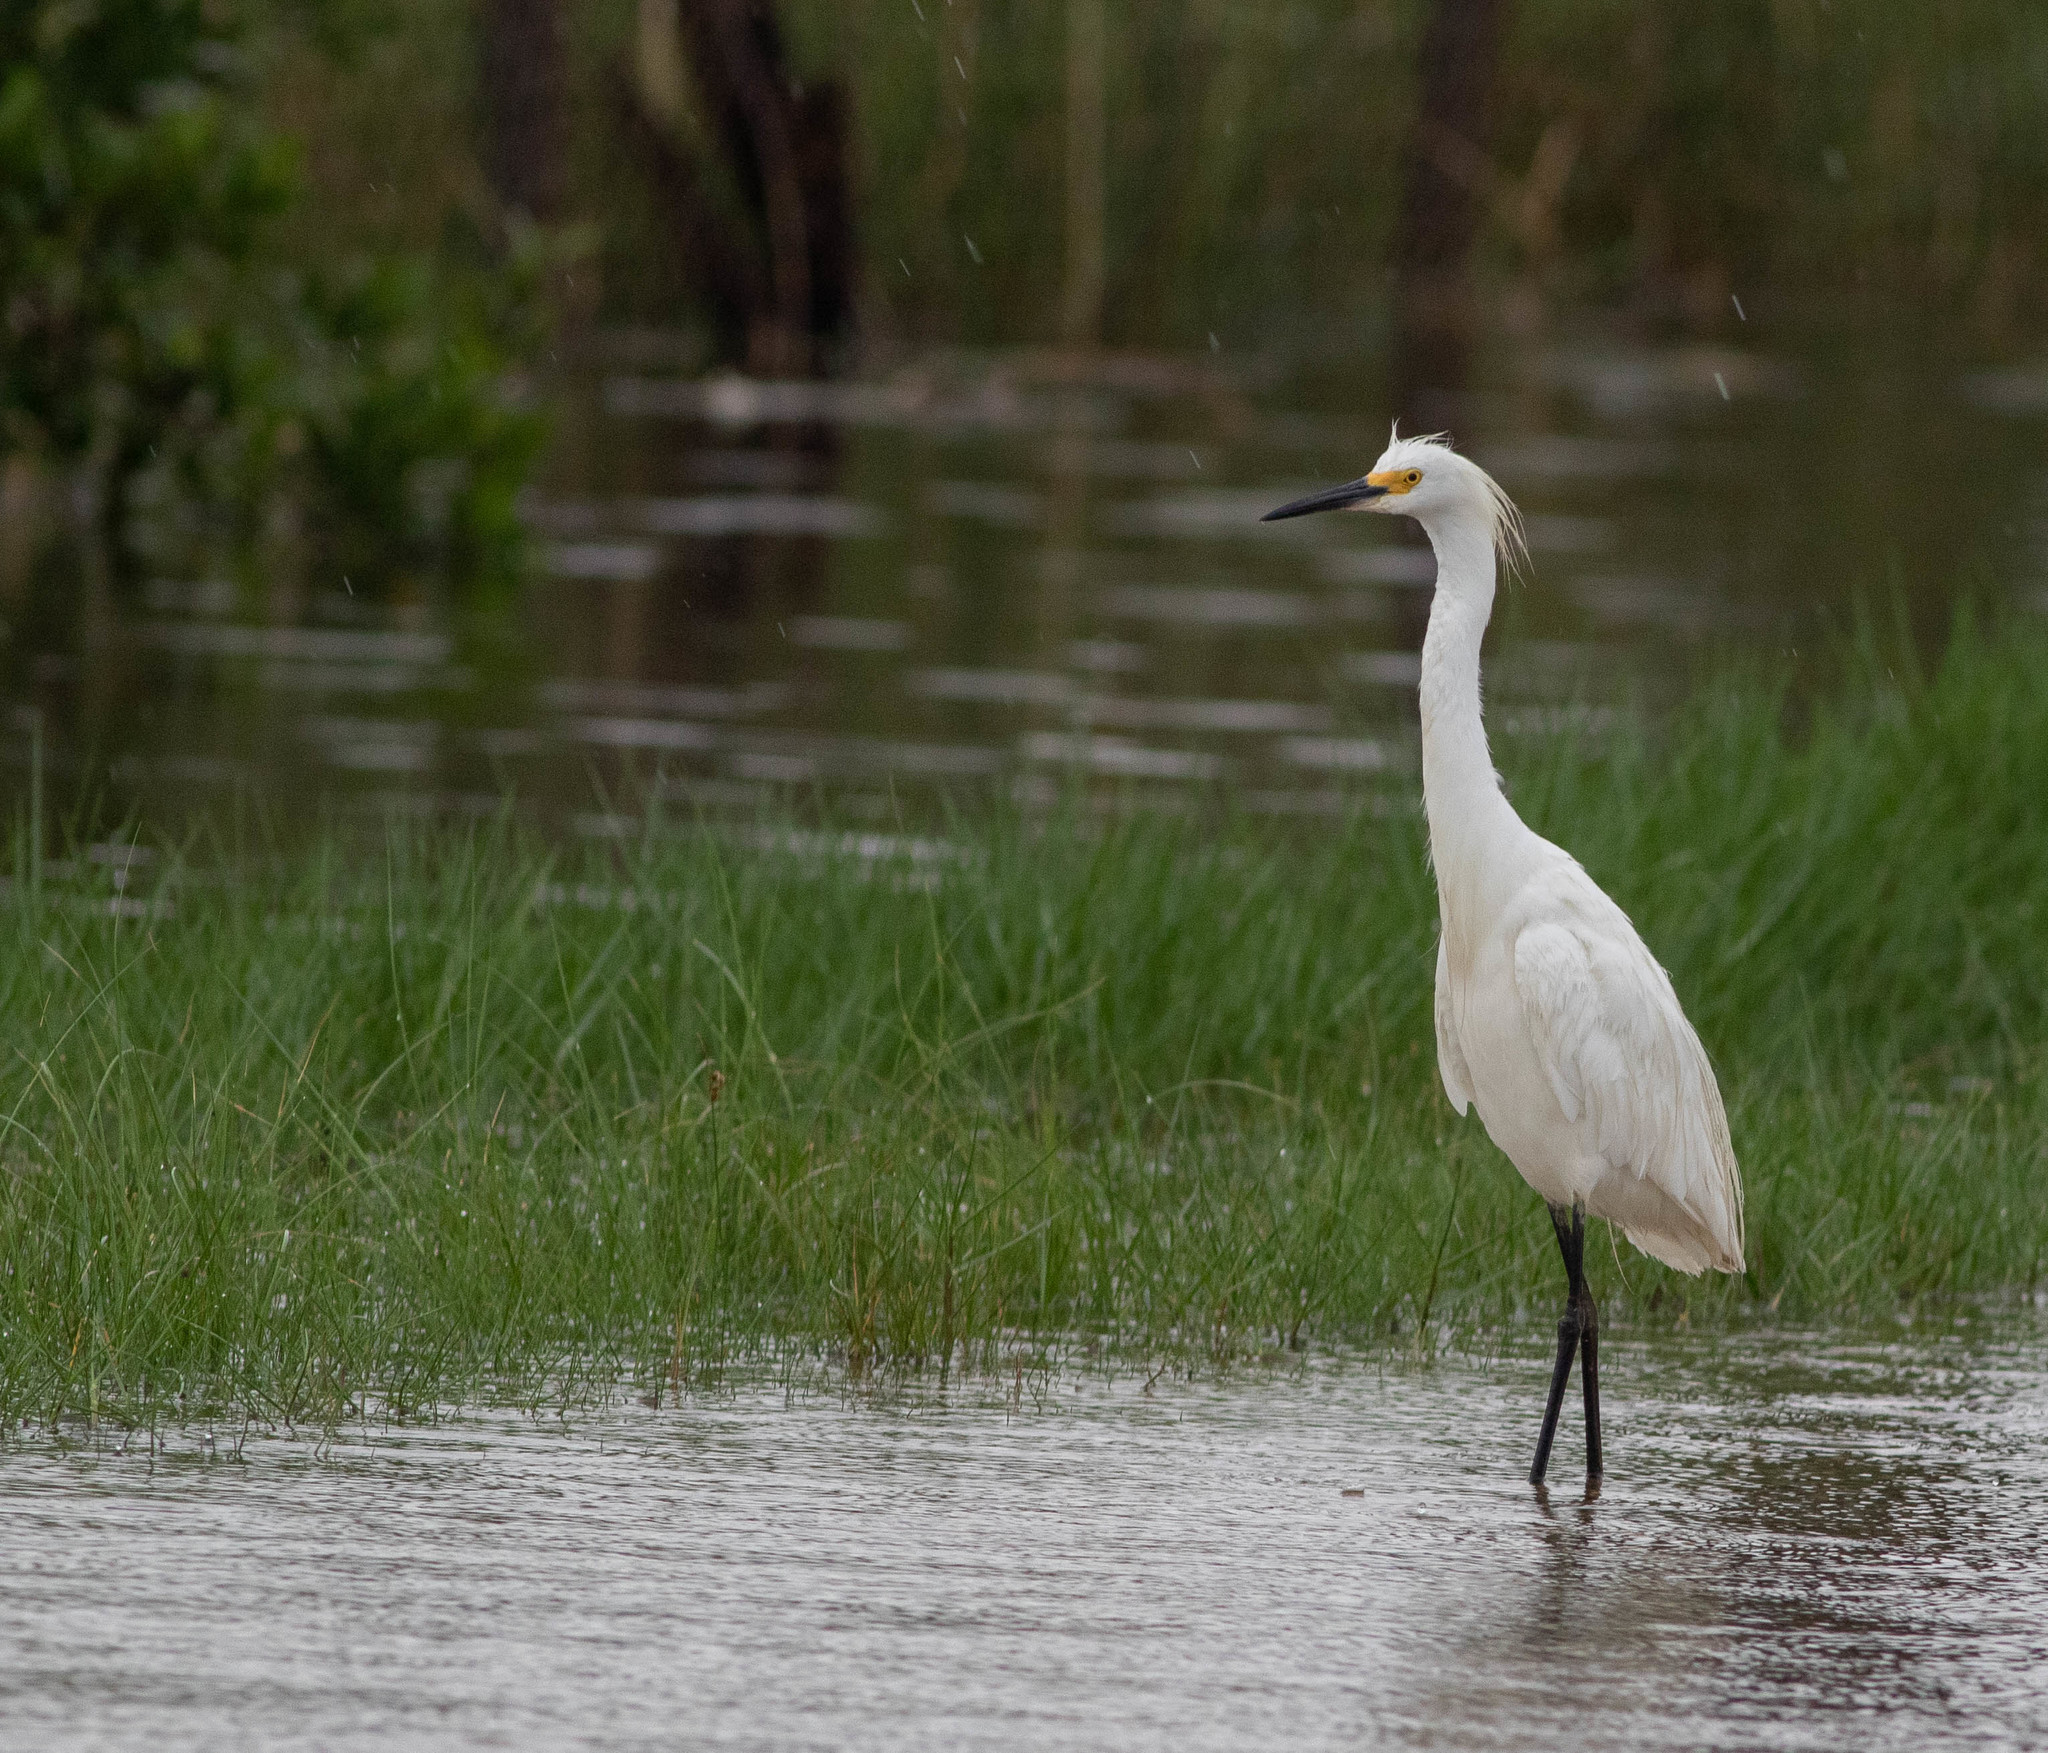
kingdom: Animalia
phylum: Chordata
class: Aves
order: Pelecaniformes
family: Ardeidae
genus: Egretta
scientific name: Egretta thula
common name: Snowy egret
